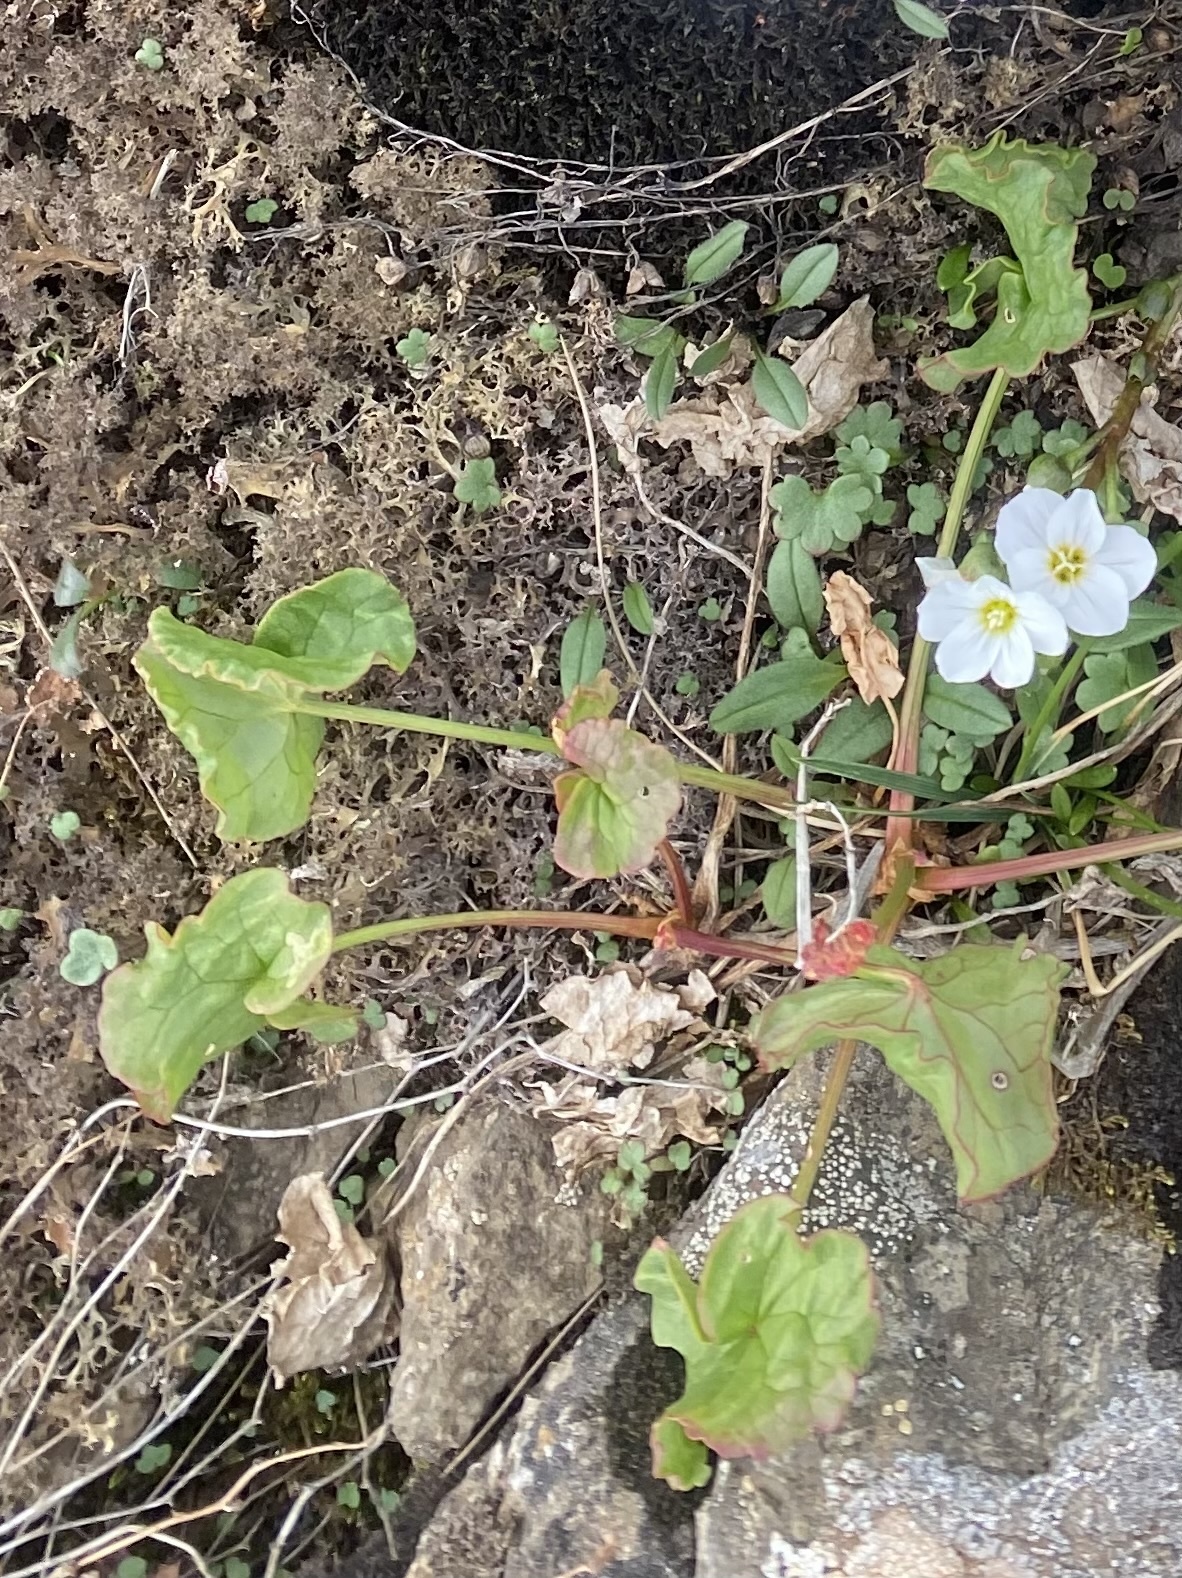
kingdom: Plantae
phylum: Tracheophyta
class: Magnoliopsida
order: Caryophyllales
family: Polygonaceae
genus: Oxyria
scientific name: Oxyria digyna
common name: Alpine mountain-sorrel
